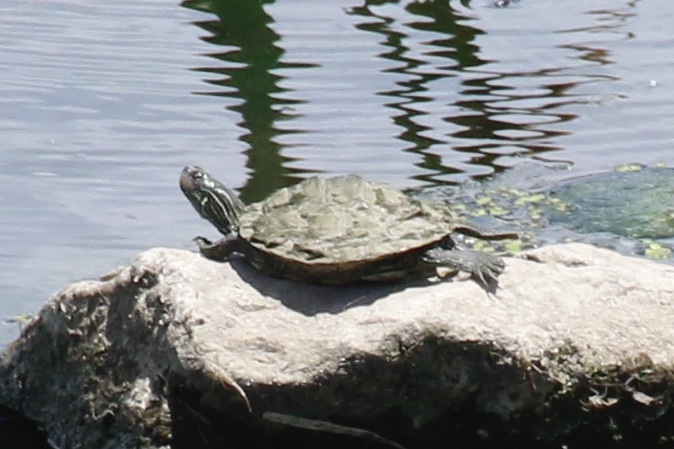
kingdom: Animalia
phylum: Chordata
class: Testudines
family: Emydidae
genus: Graptemys
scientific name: Graptemys geographica
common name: Common map turtle
